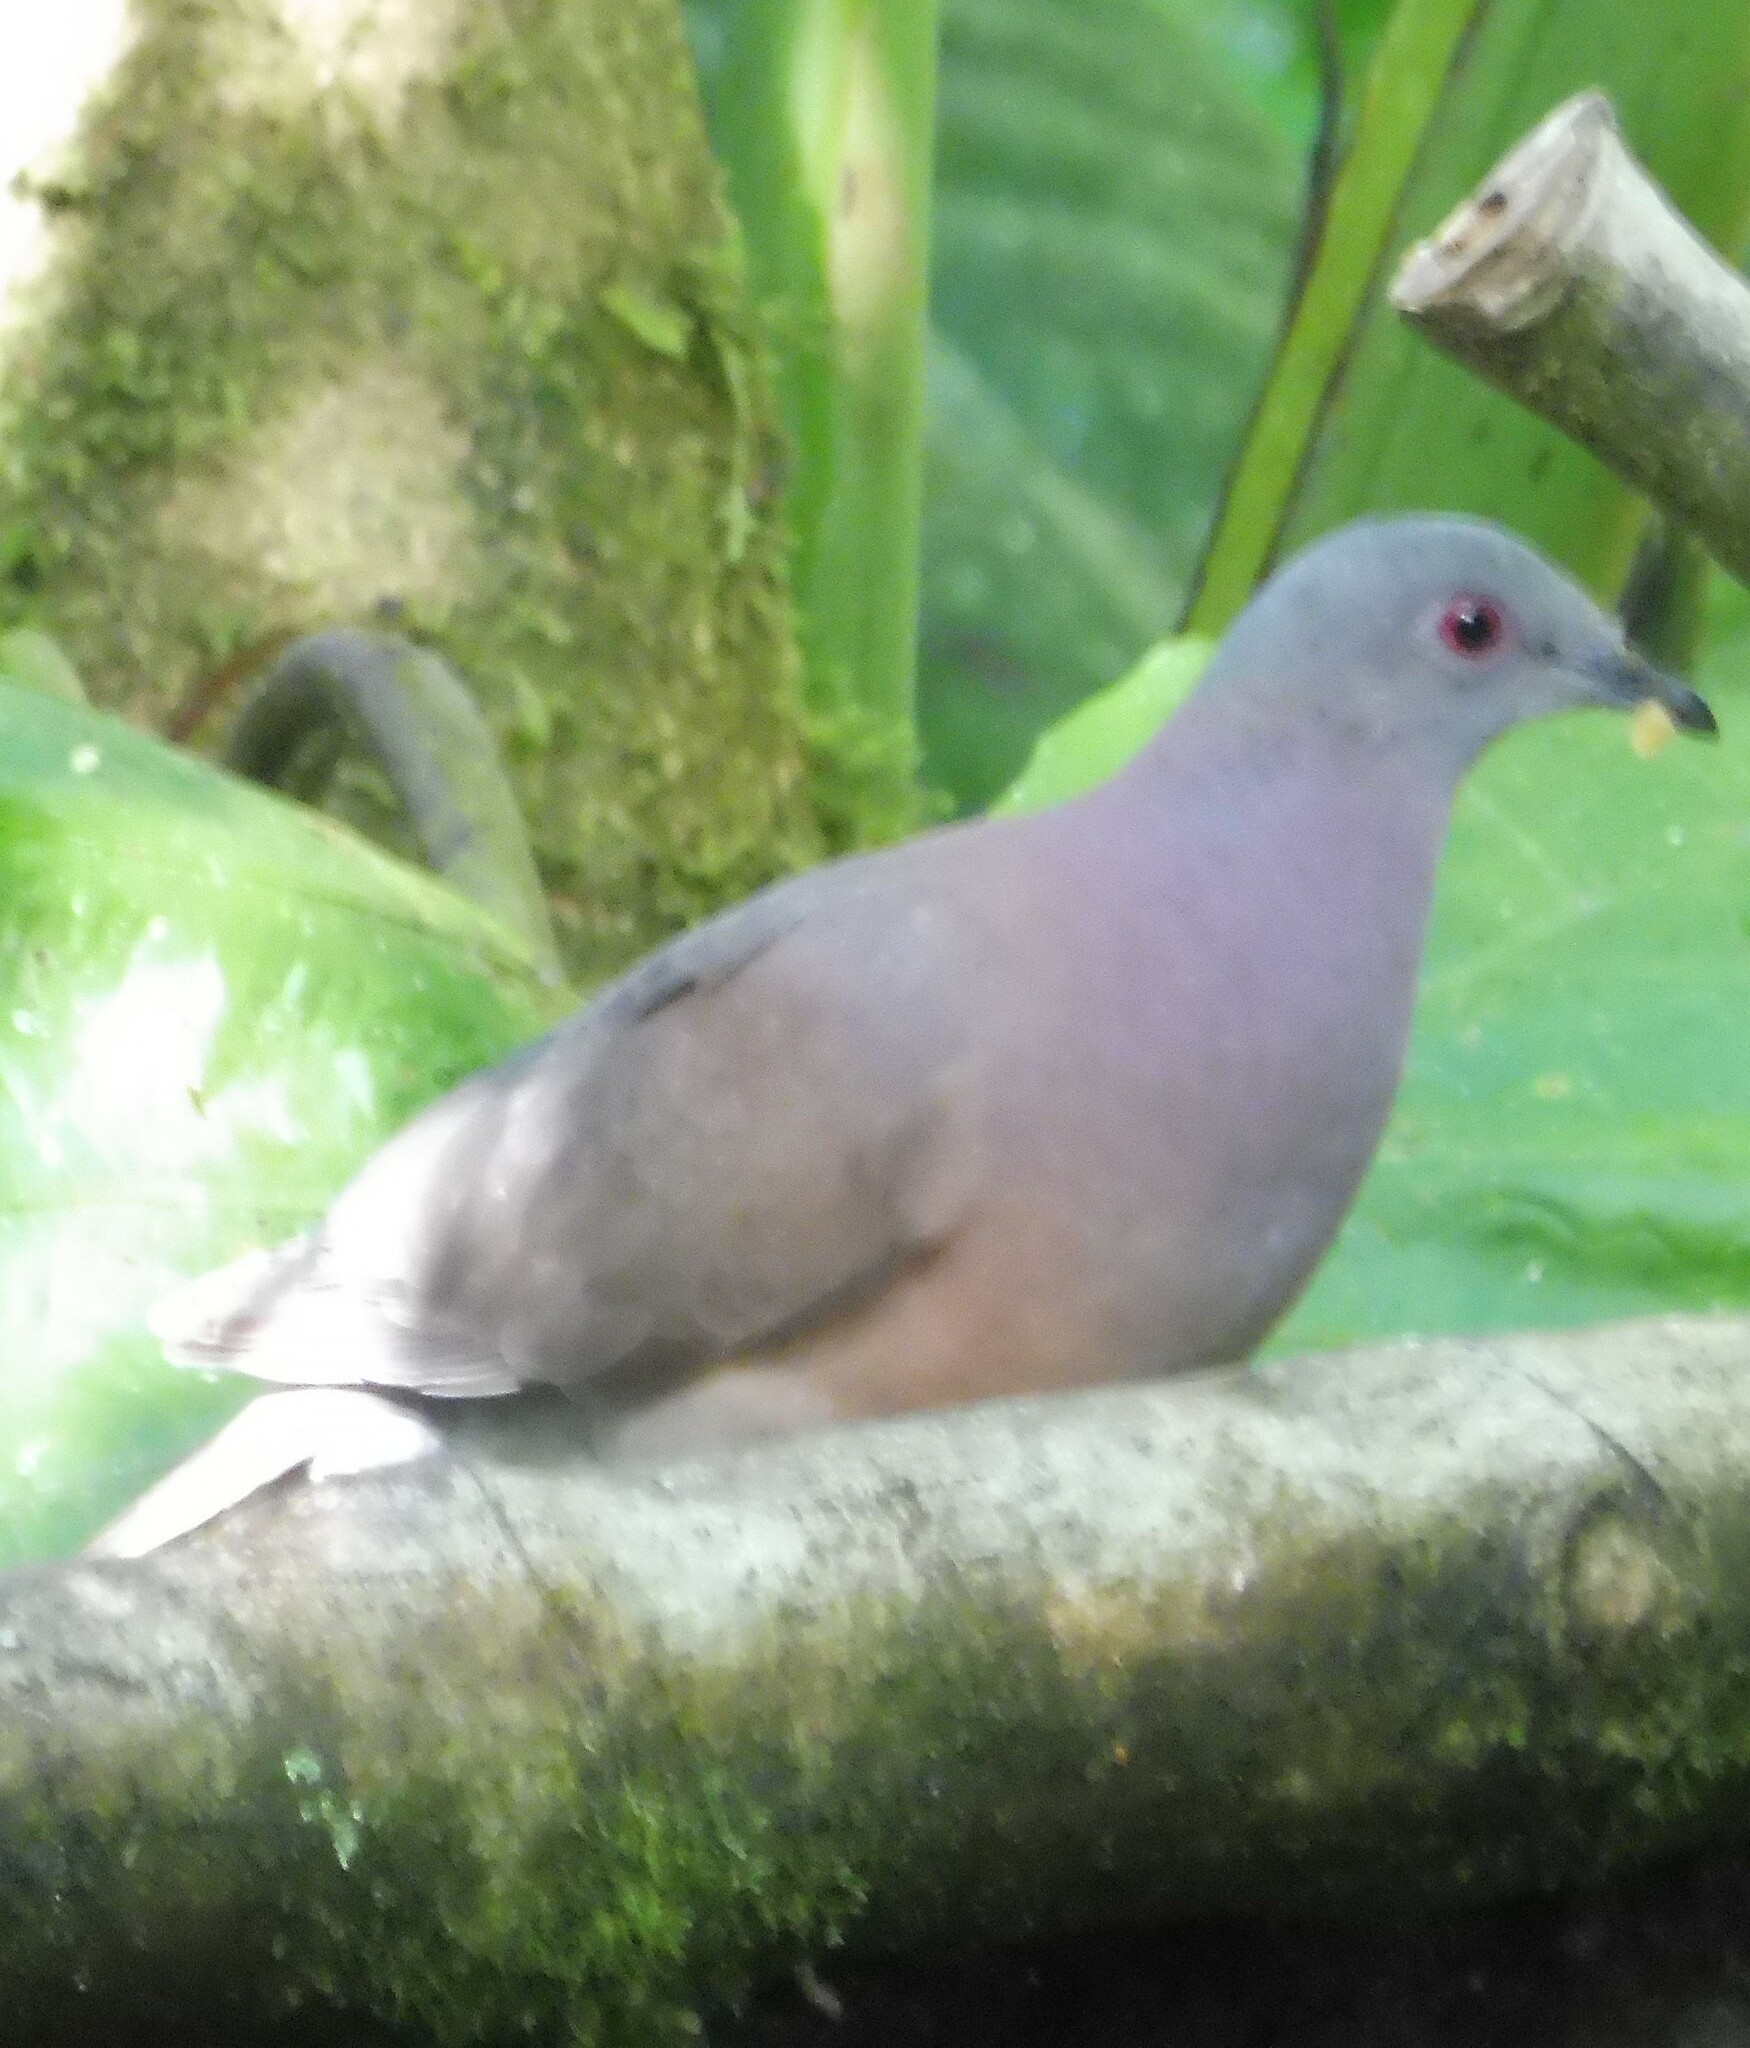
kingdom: Animalia
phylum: Chordata
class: Aves
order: Columbiformes
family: Columbidae
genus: Patagioenas
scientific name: Patagioenas cayennensis
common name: Pale-vented pigeon
